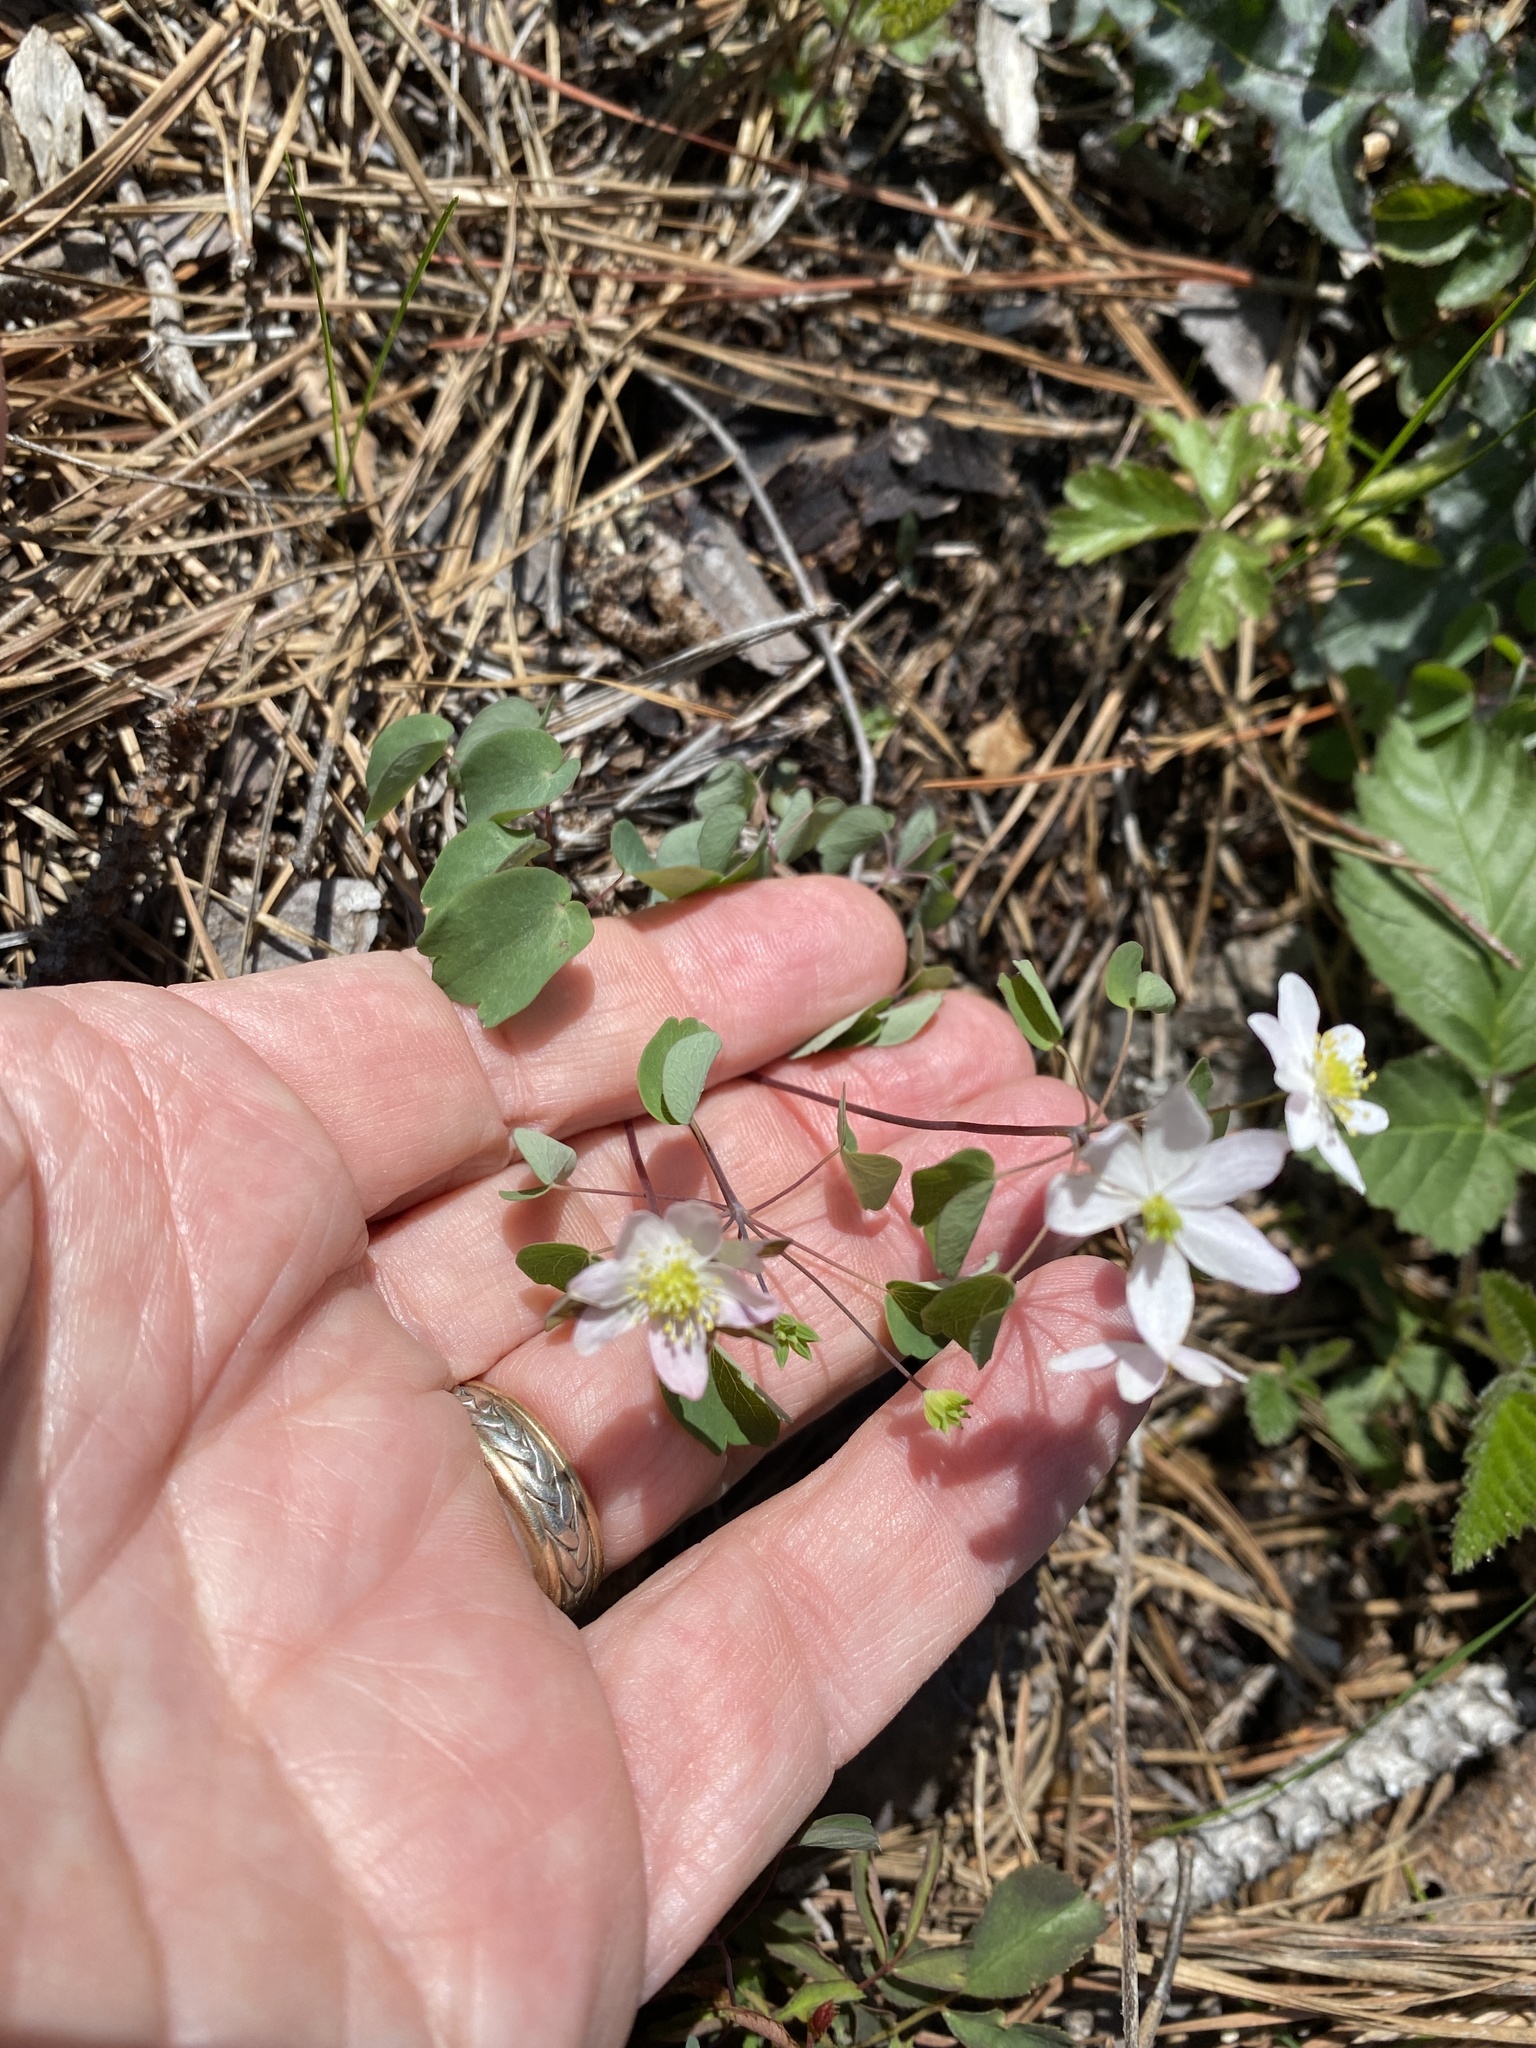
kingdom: Plantae
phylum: Tracheophyta
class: Magnoliopsida
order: Ranunculales
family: Ranunculaceae
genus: Thalictrum
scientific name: Thalictrum thalictroides
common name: Rue-anemone
